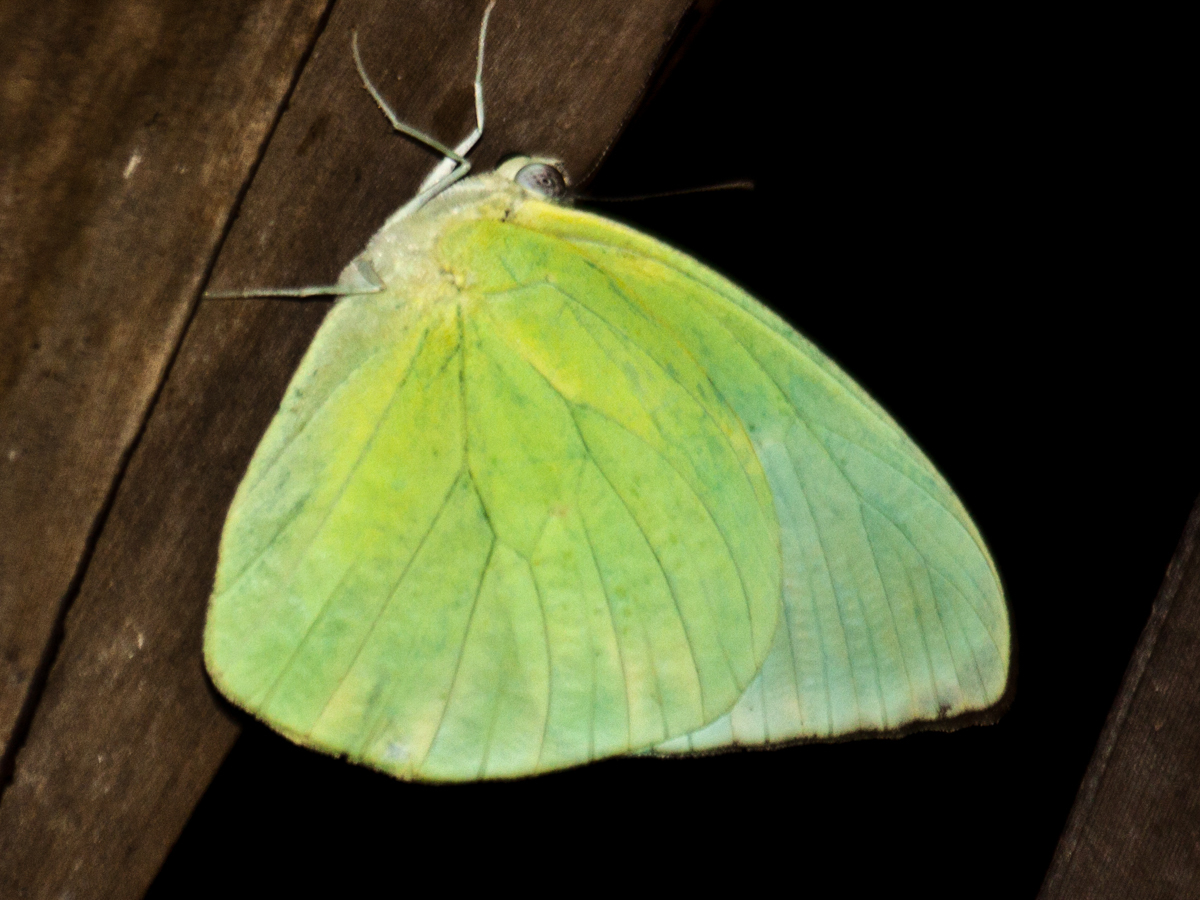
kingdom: Animalia
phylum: Arthropoda
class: Insecta
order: Lepidoptera
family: Pieridae
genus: Catopsilia
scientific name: Catopsilia pomona
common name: Common emigrant
